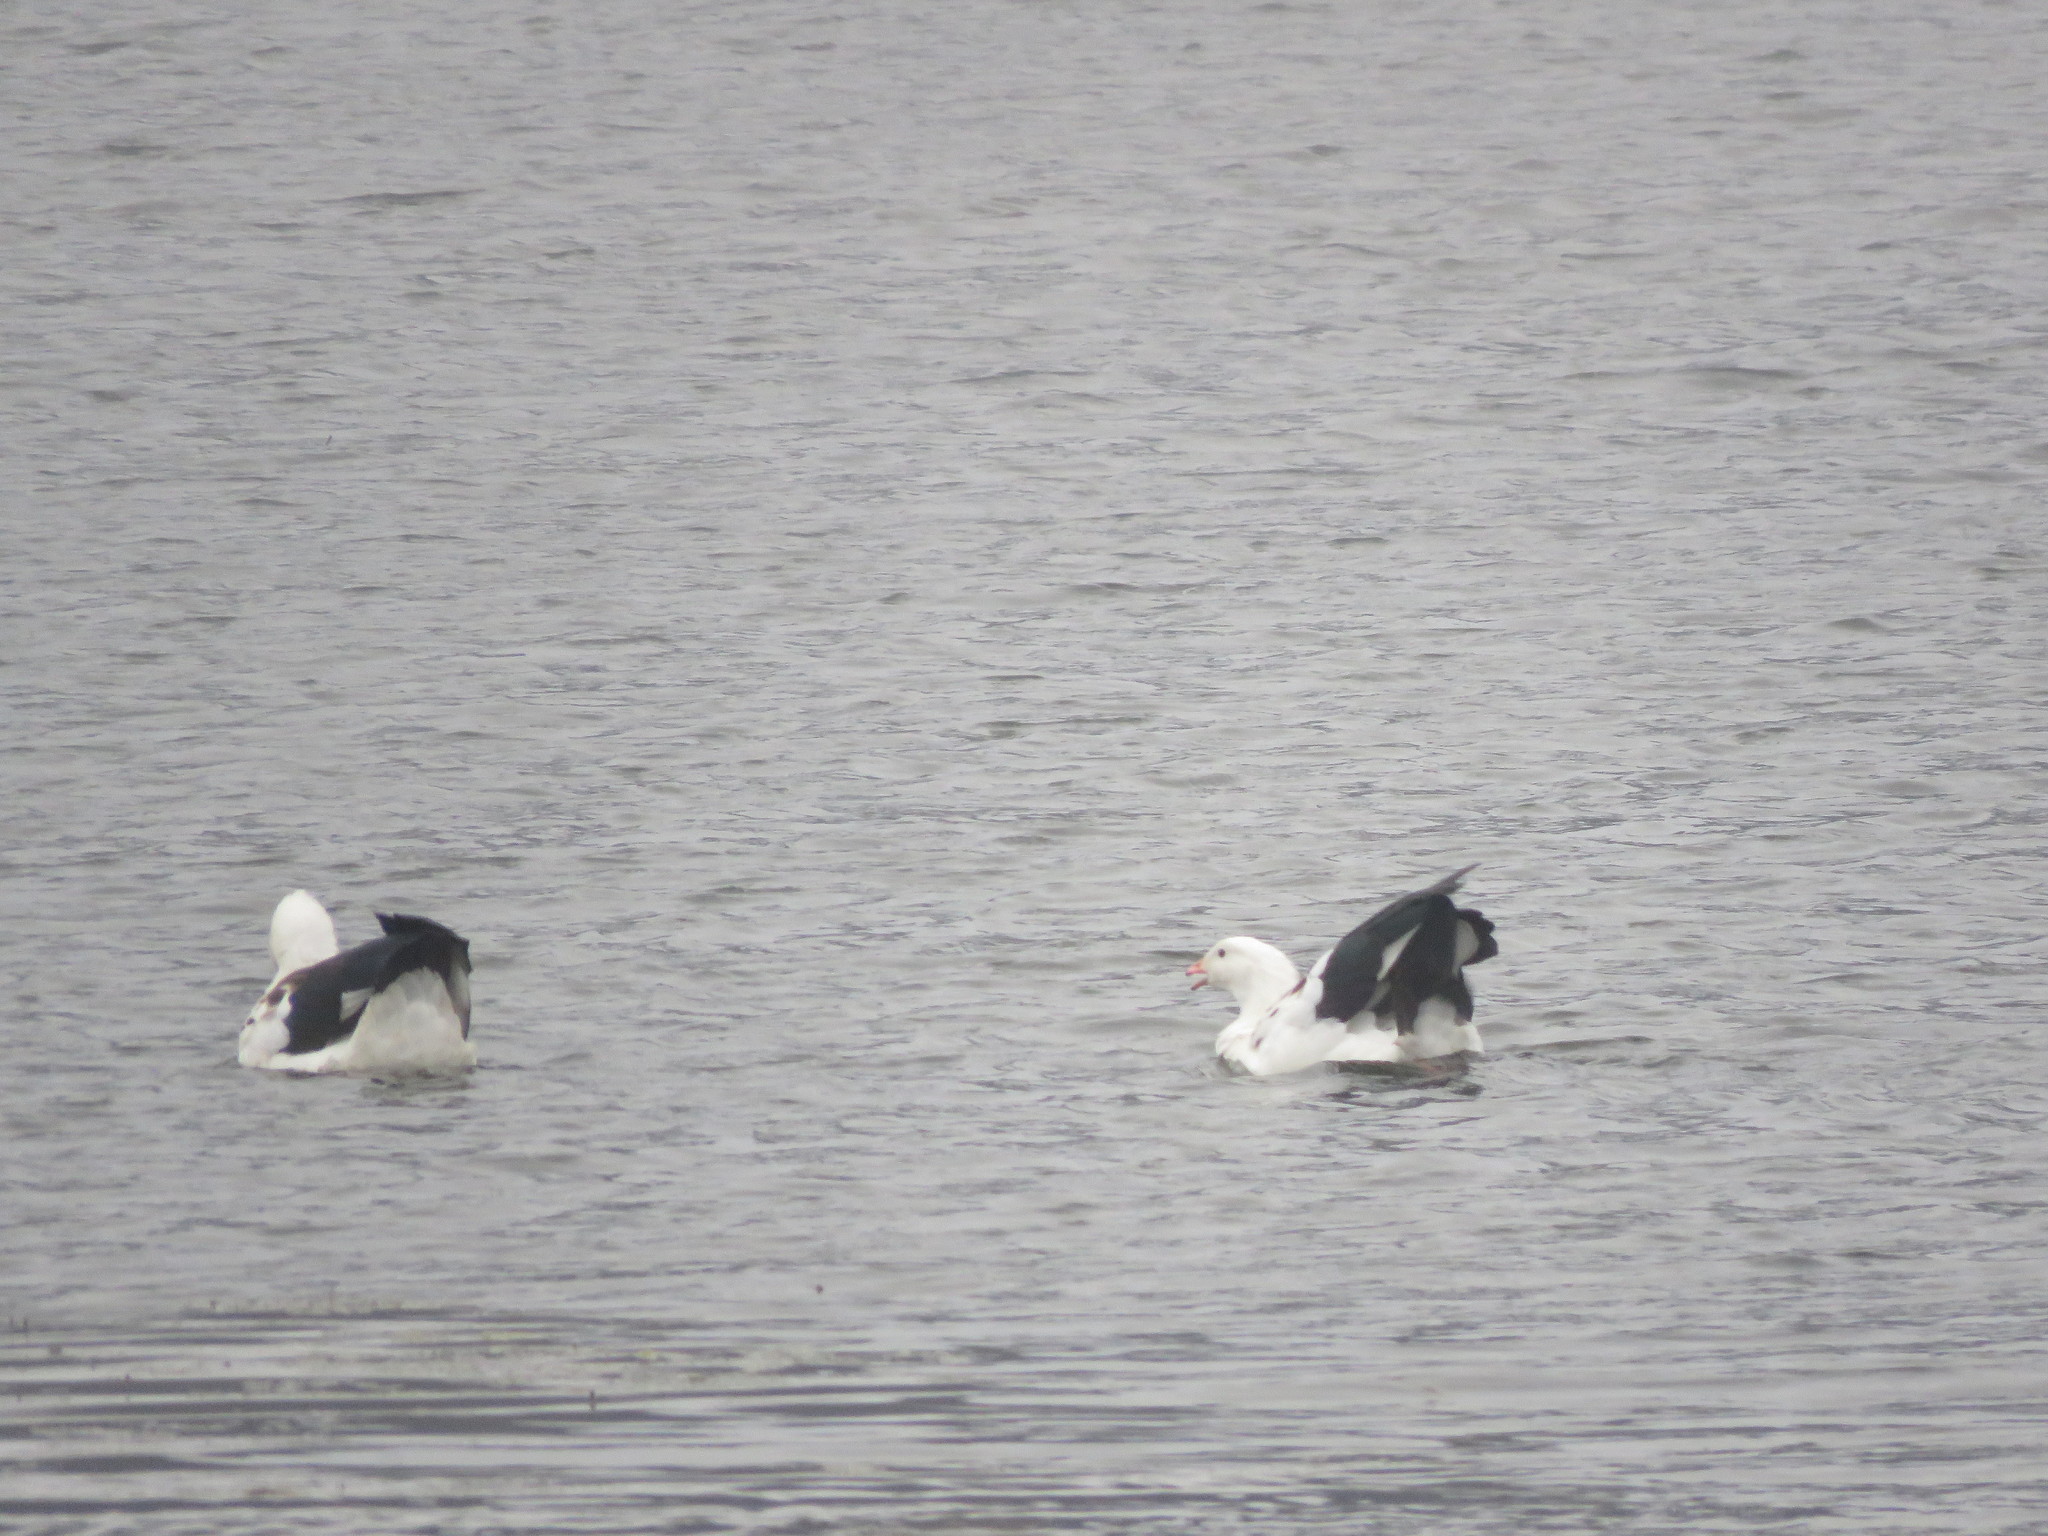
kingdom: Animalia
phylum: Chordata
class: Aves
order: Anseriformes
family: Anatidae
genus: Chloephaga
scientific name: Chloephaga melanoptera
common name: Andean goose
